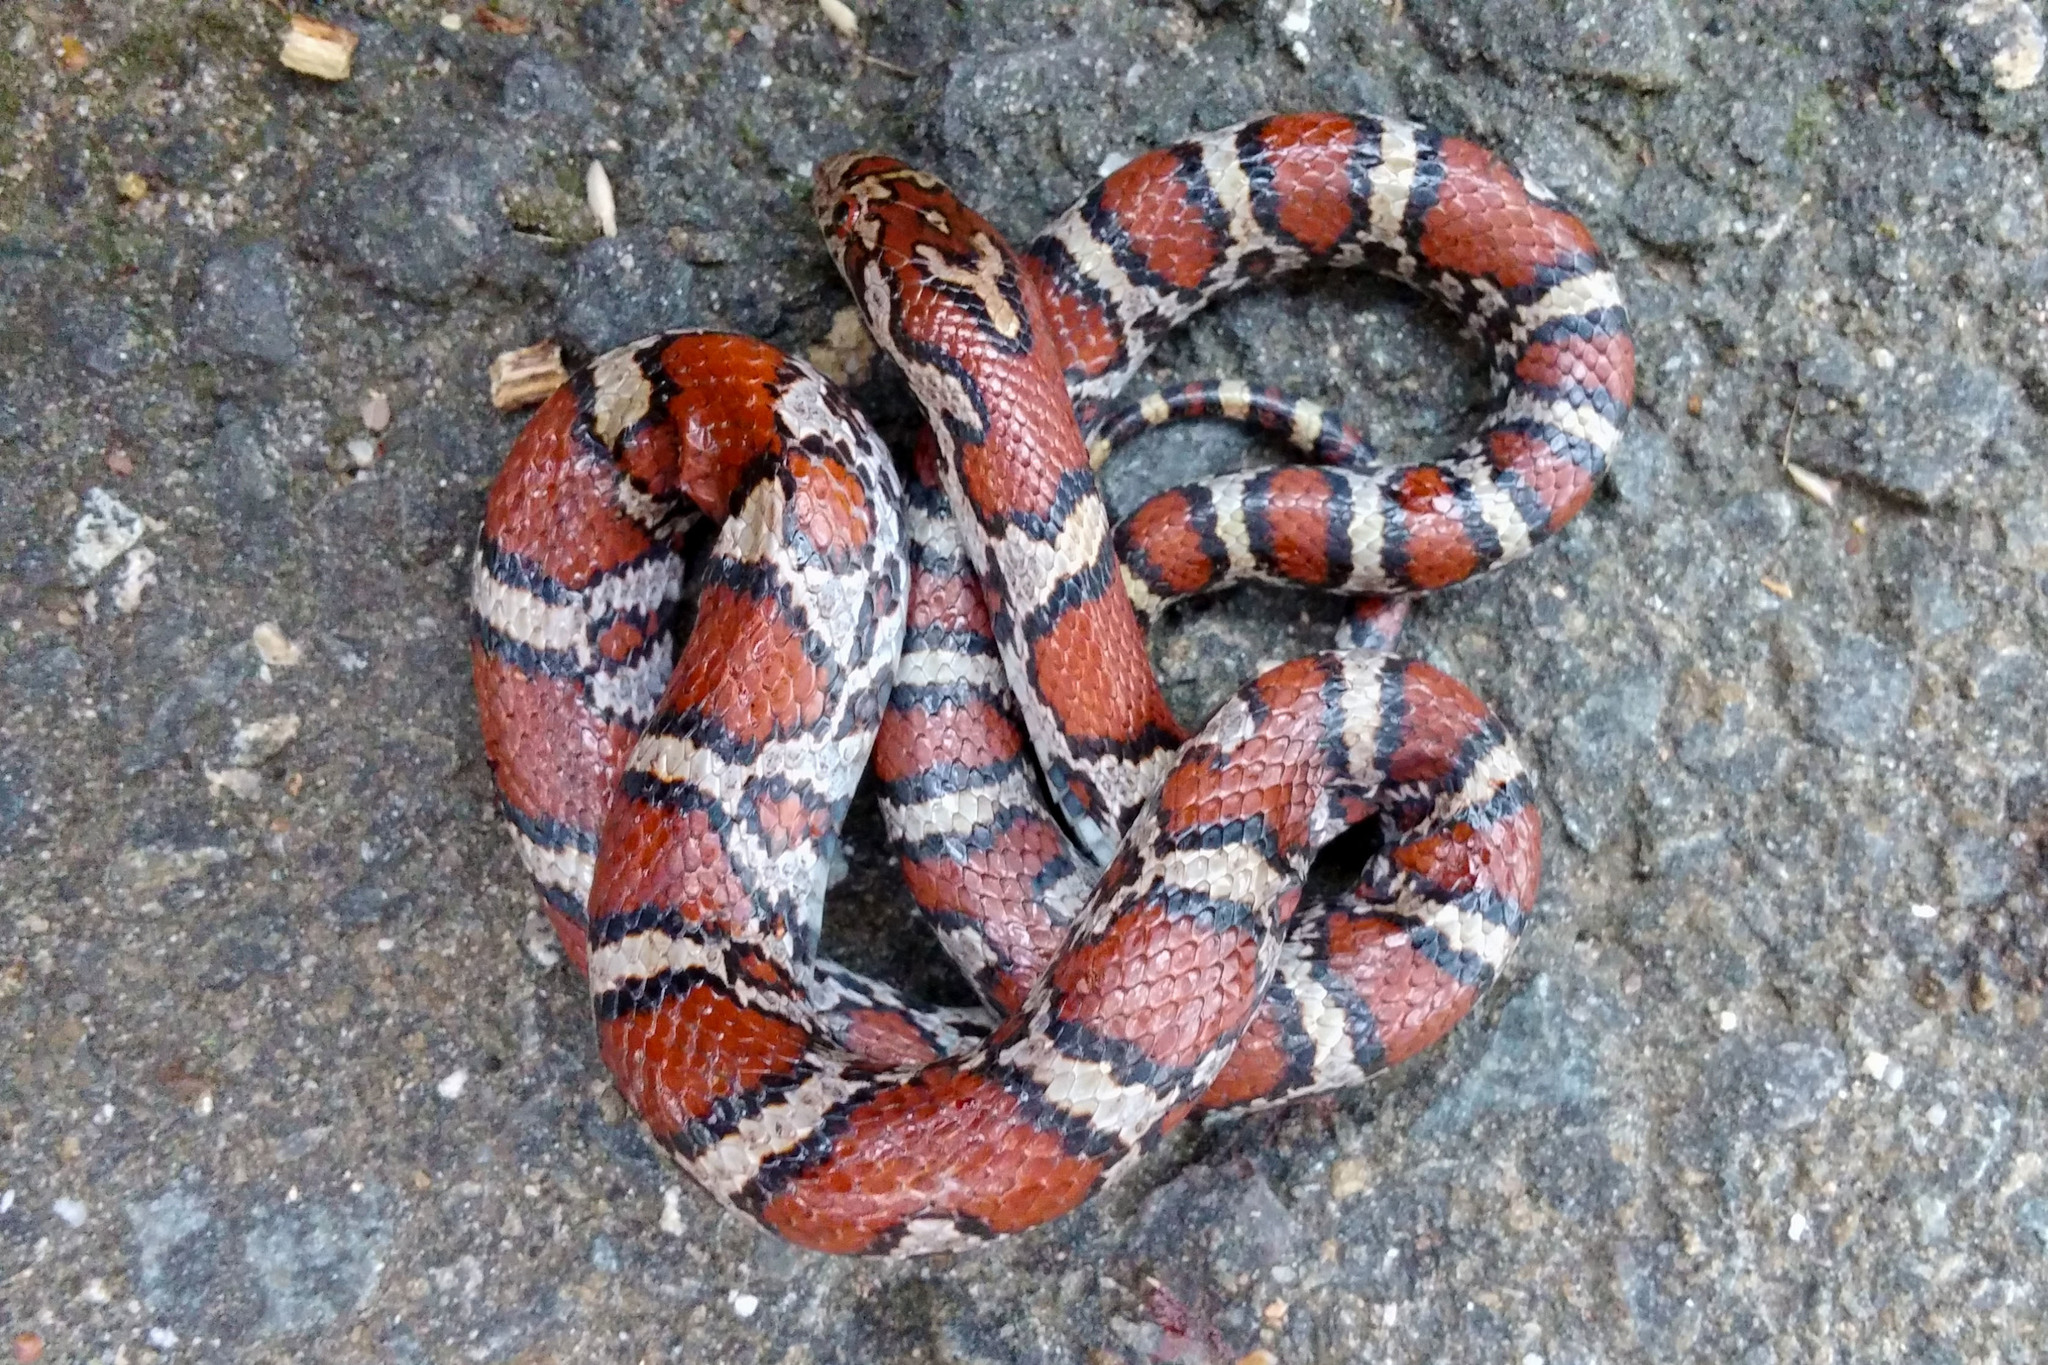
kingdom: Animalia
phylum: Chordata
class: Squamata
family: Colubridae
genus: Lampropeltis
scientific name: Lampropeltis triangulum
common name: Eastern milksnake
